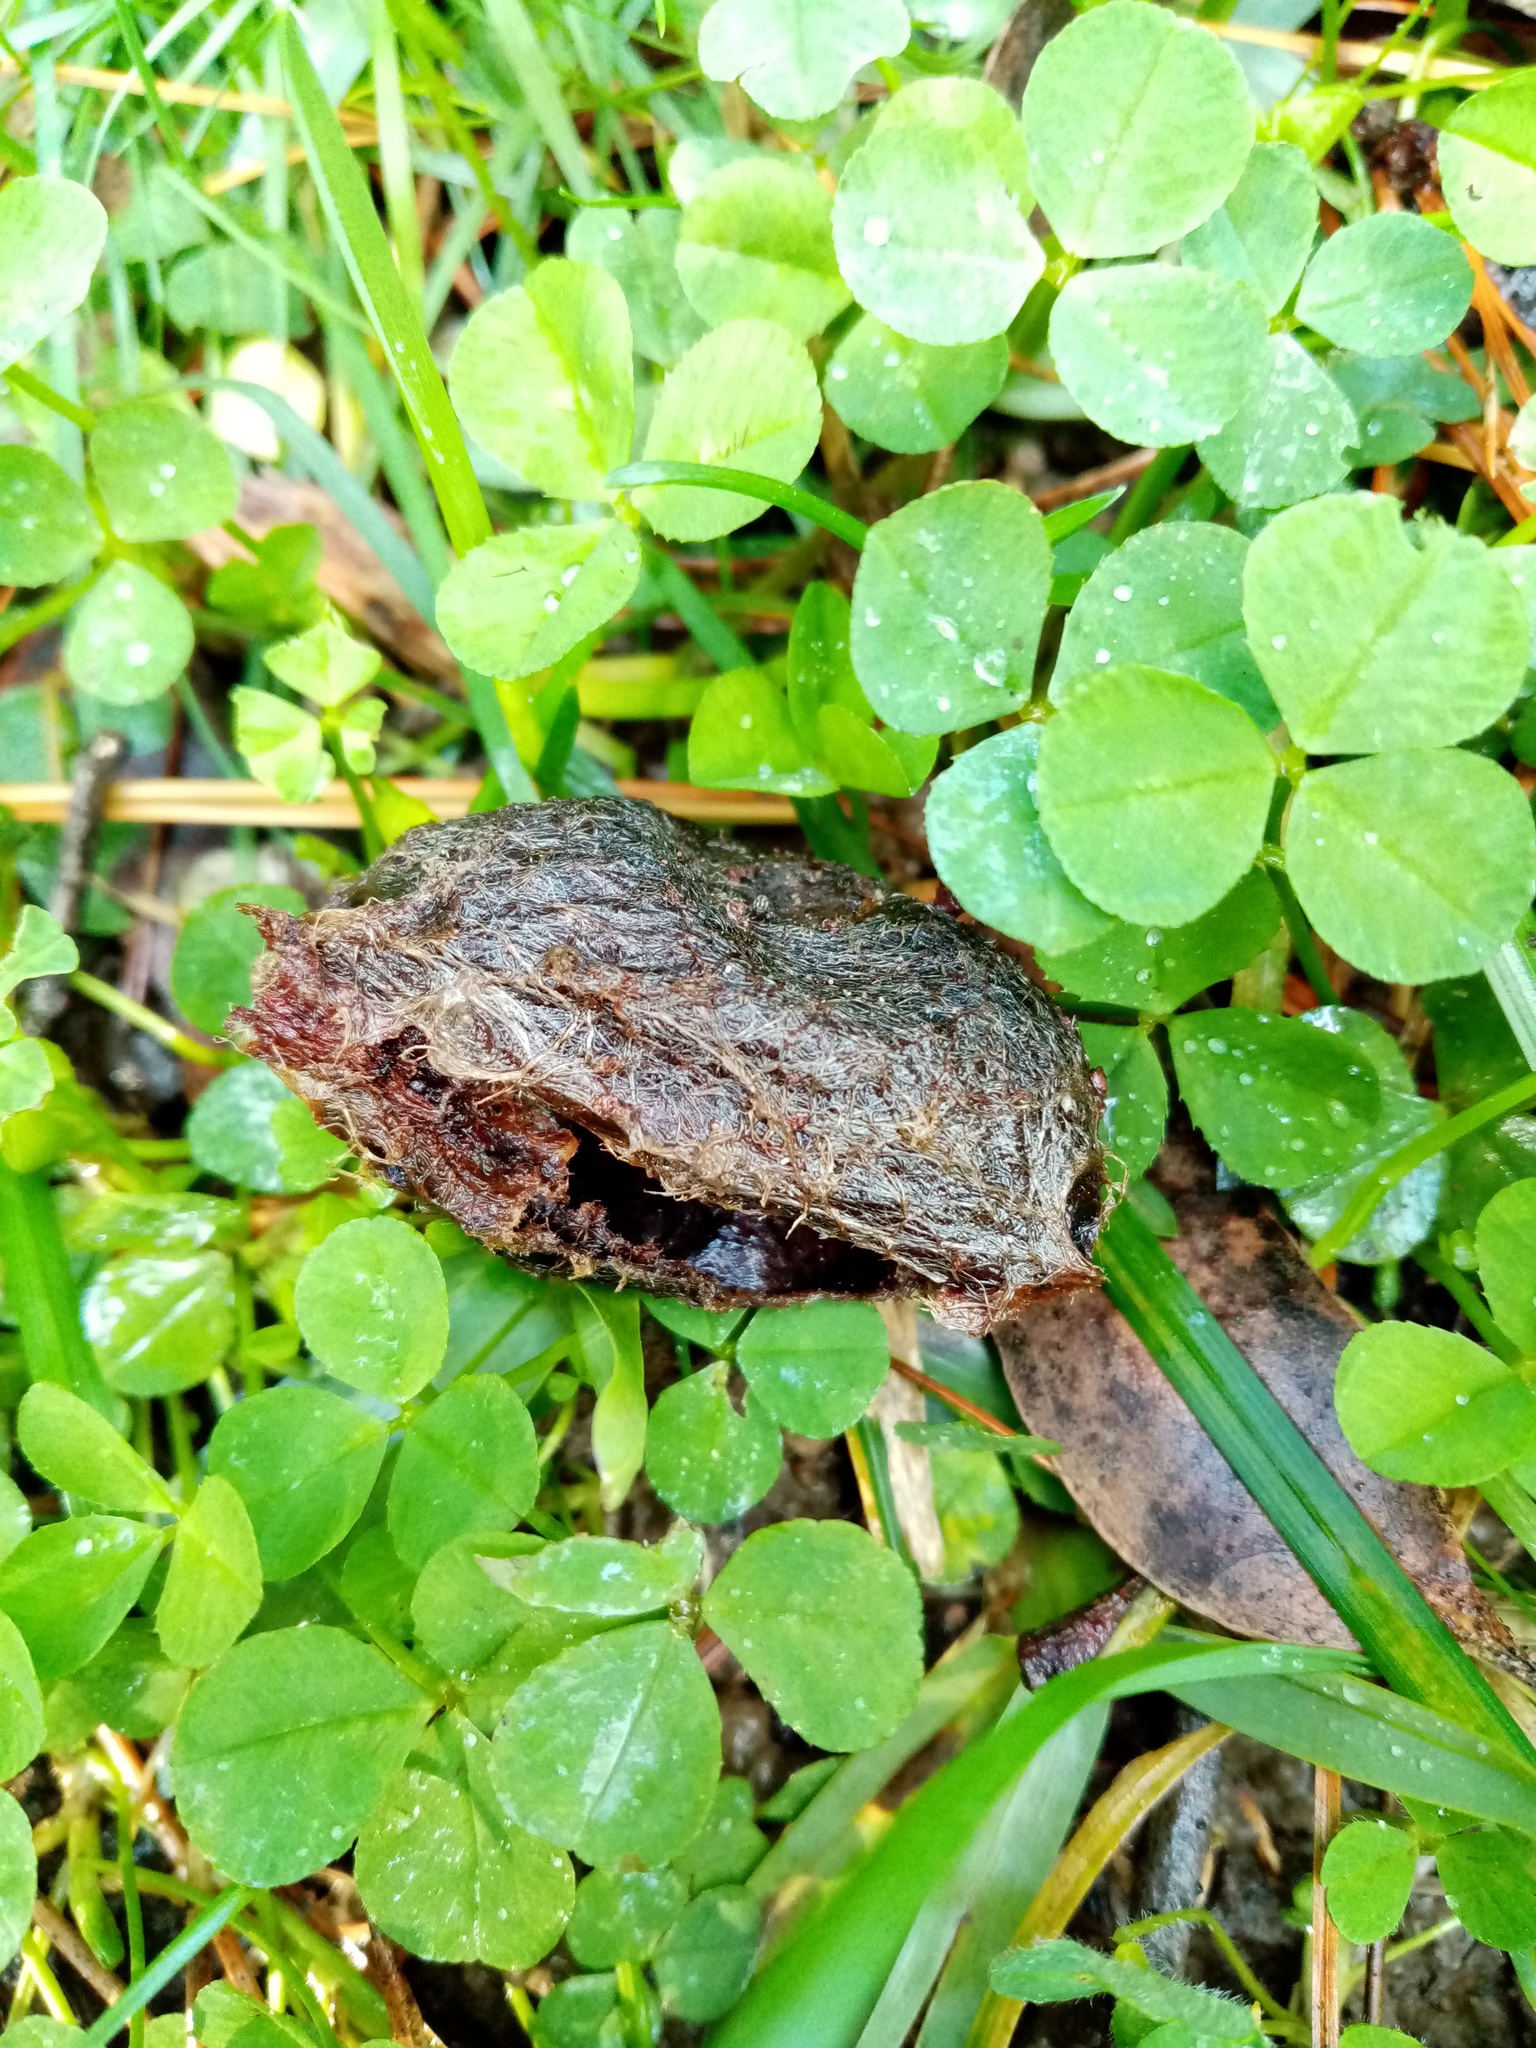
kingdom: Animalia
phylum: Arthropoda
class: Insecta
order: Lepidoptera
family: Saturniidae
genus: Opodiphthera
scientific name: Opodiphthera
